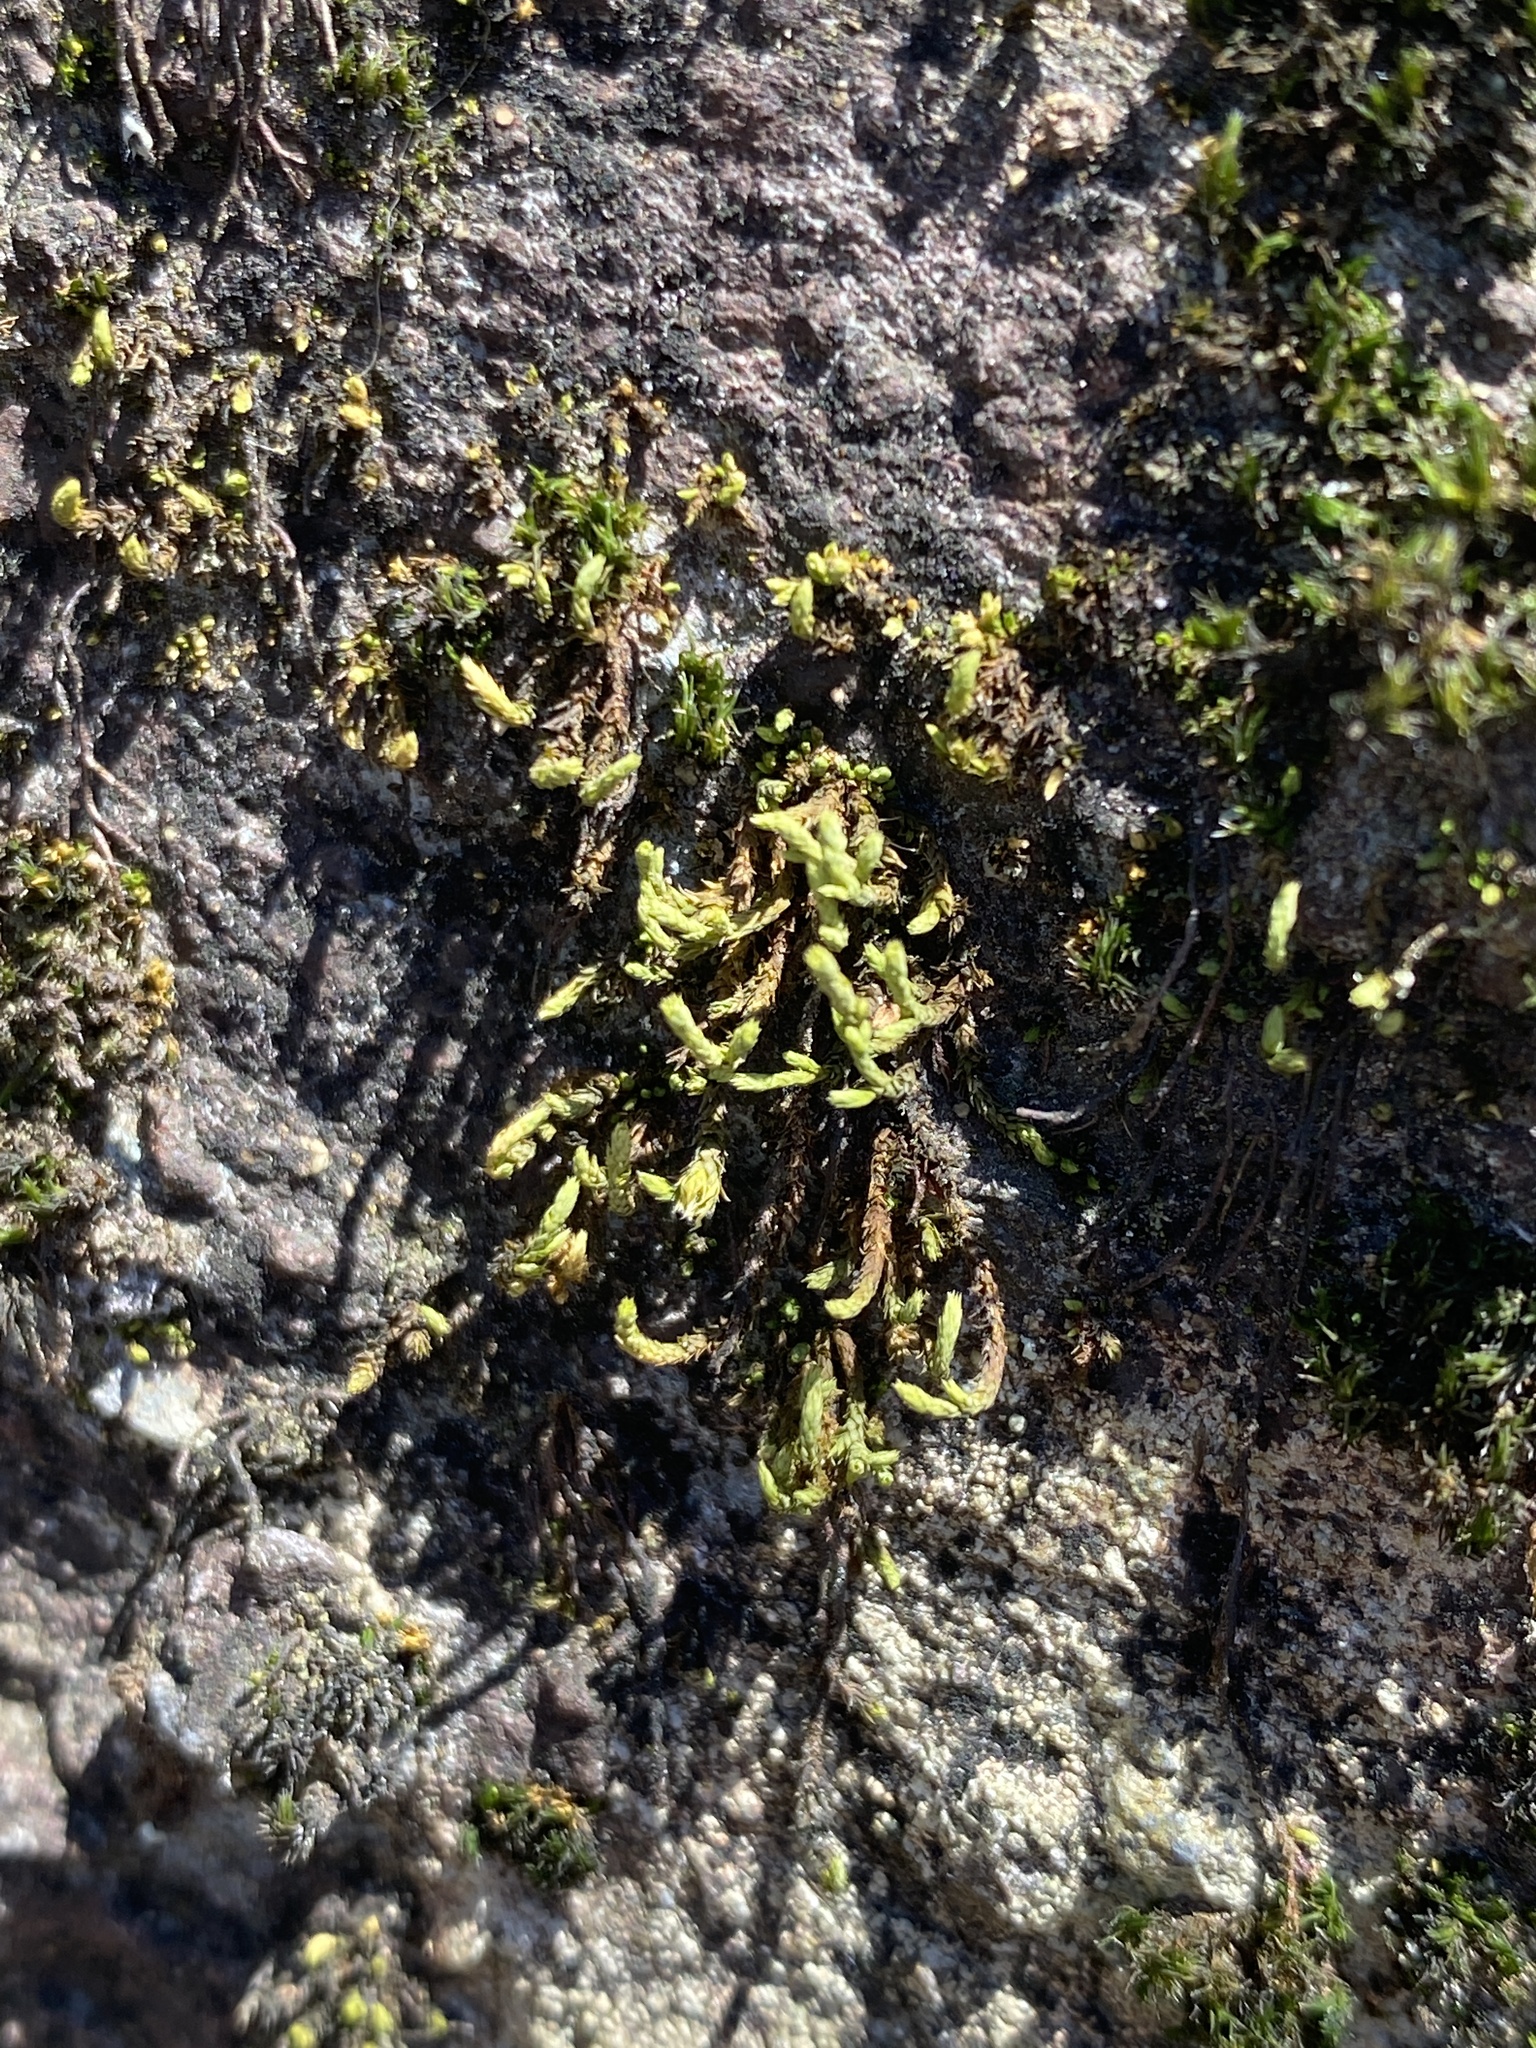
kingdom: Plantae
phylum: Bryophyta
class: Bryopsida
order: Hedwigiales
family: Hedwigiaceae
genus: Hedwigia
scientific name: Hedwigia ciliata
